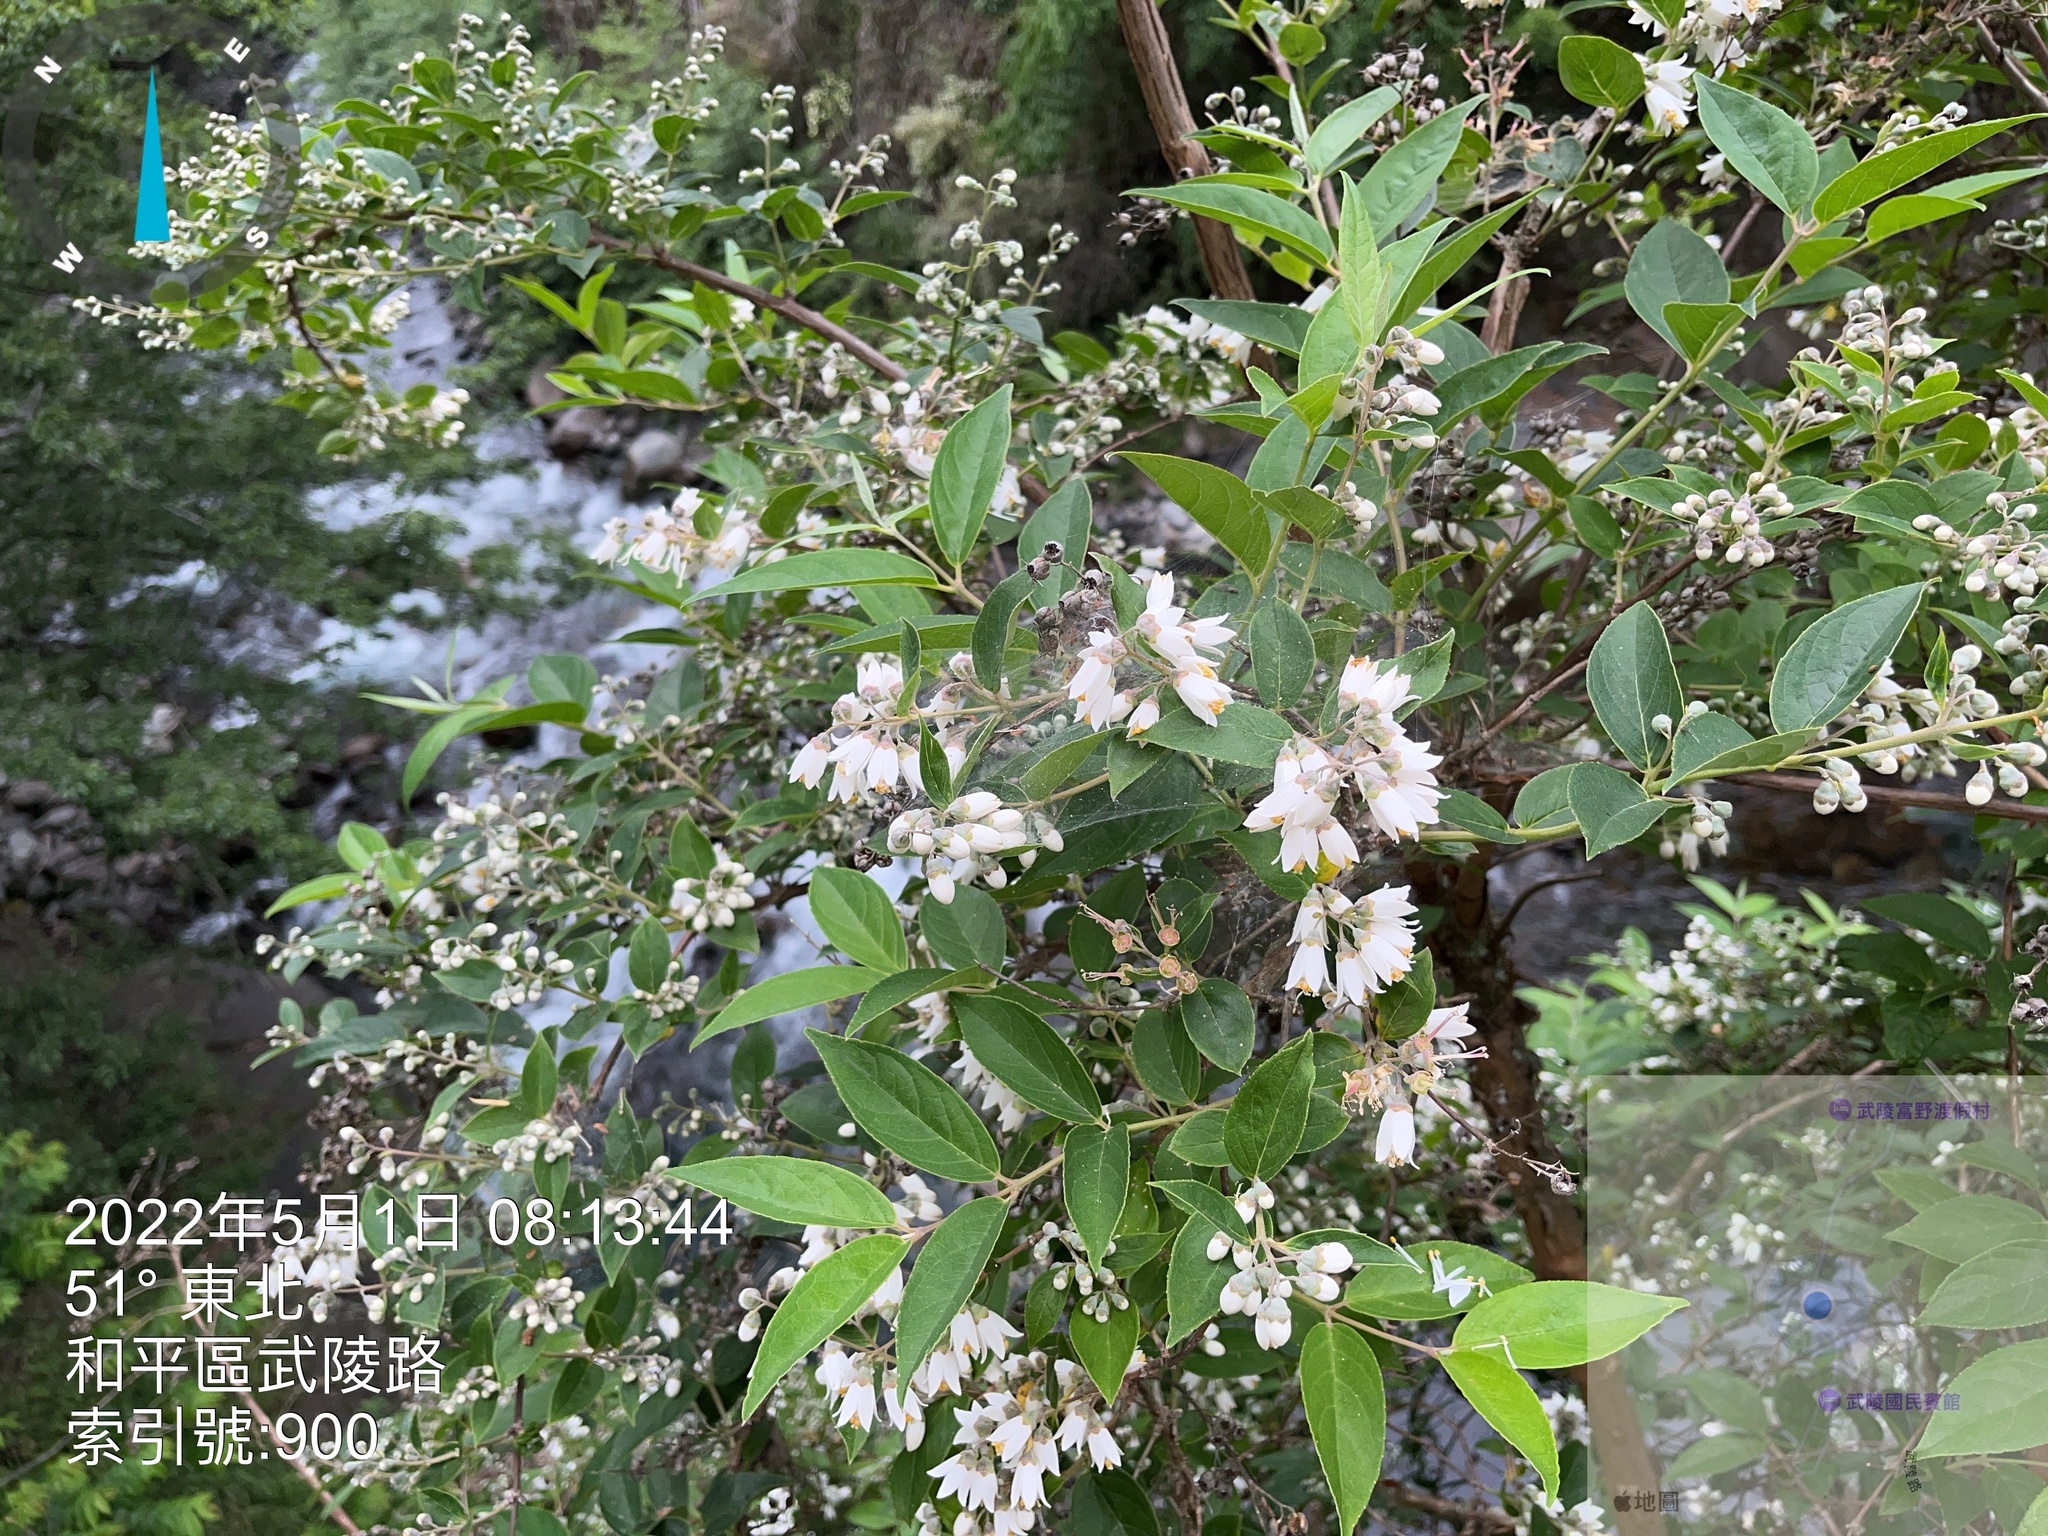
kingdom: Plantae
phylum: Tracheophyta
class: Magnoliopsida
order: Cornales
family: Hydrangeaceae
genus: Deutzia
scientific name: Deutzia pulchra
